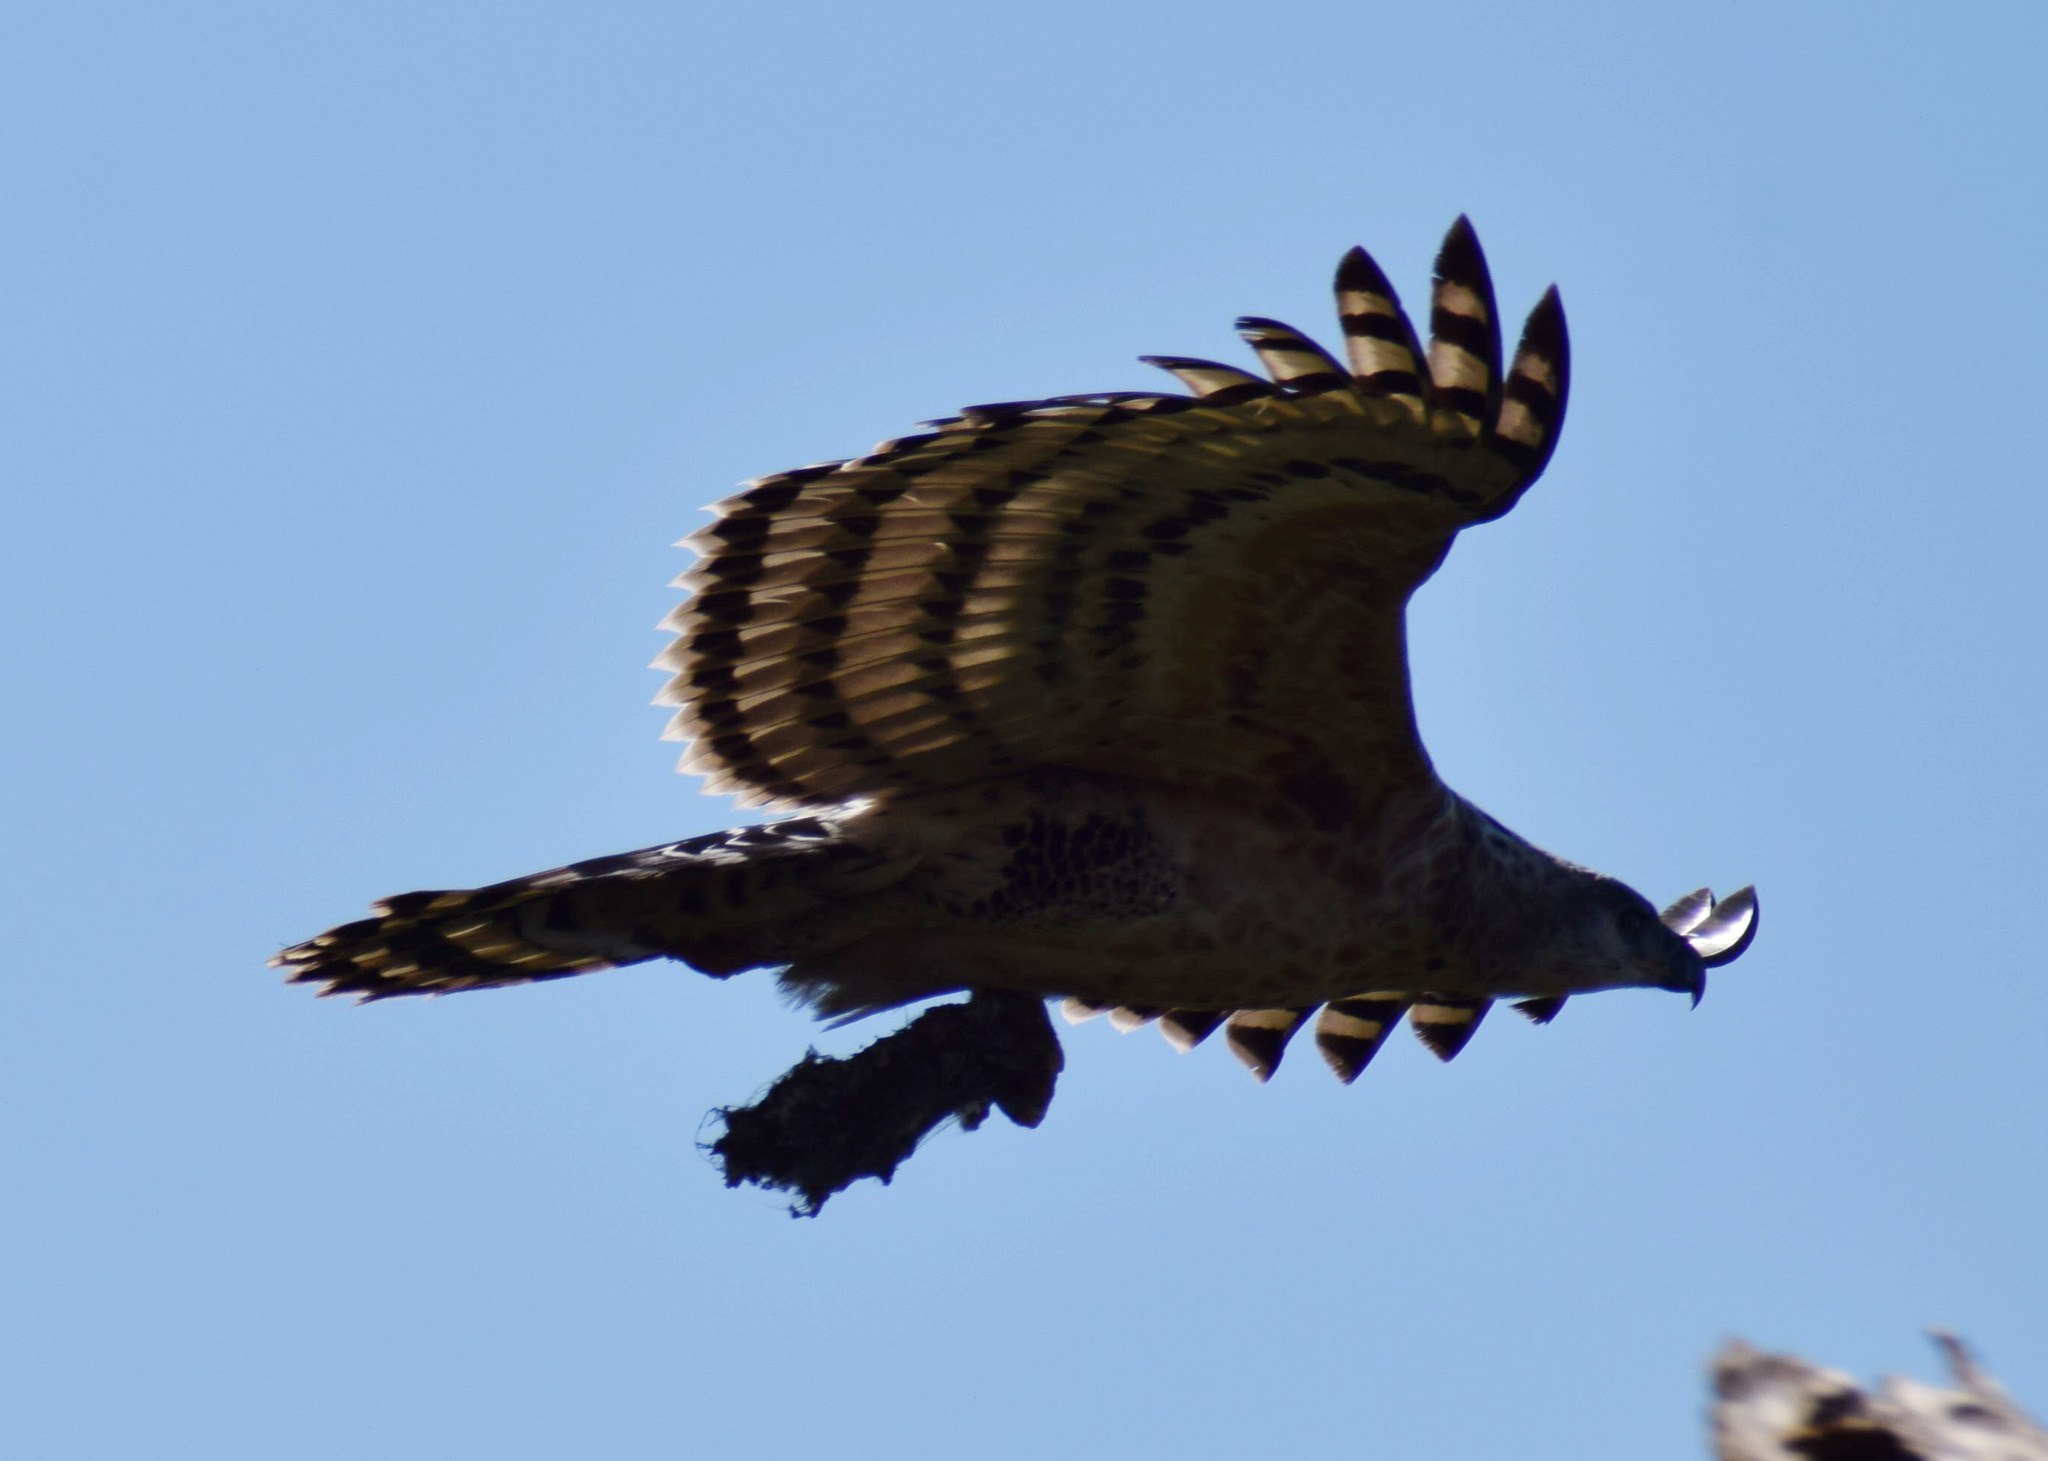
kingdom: Animalia
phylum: Chordata
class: Aves
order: Accipitriformes
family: Accipitridae
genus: Stephanoaetus
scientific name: Stephanoaetus coronatus
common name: Crowned eagle
